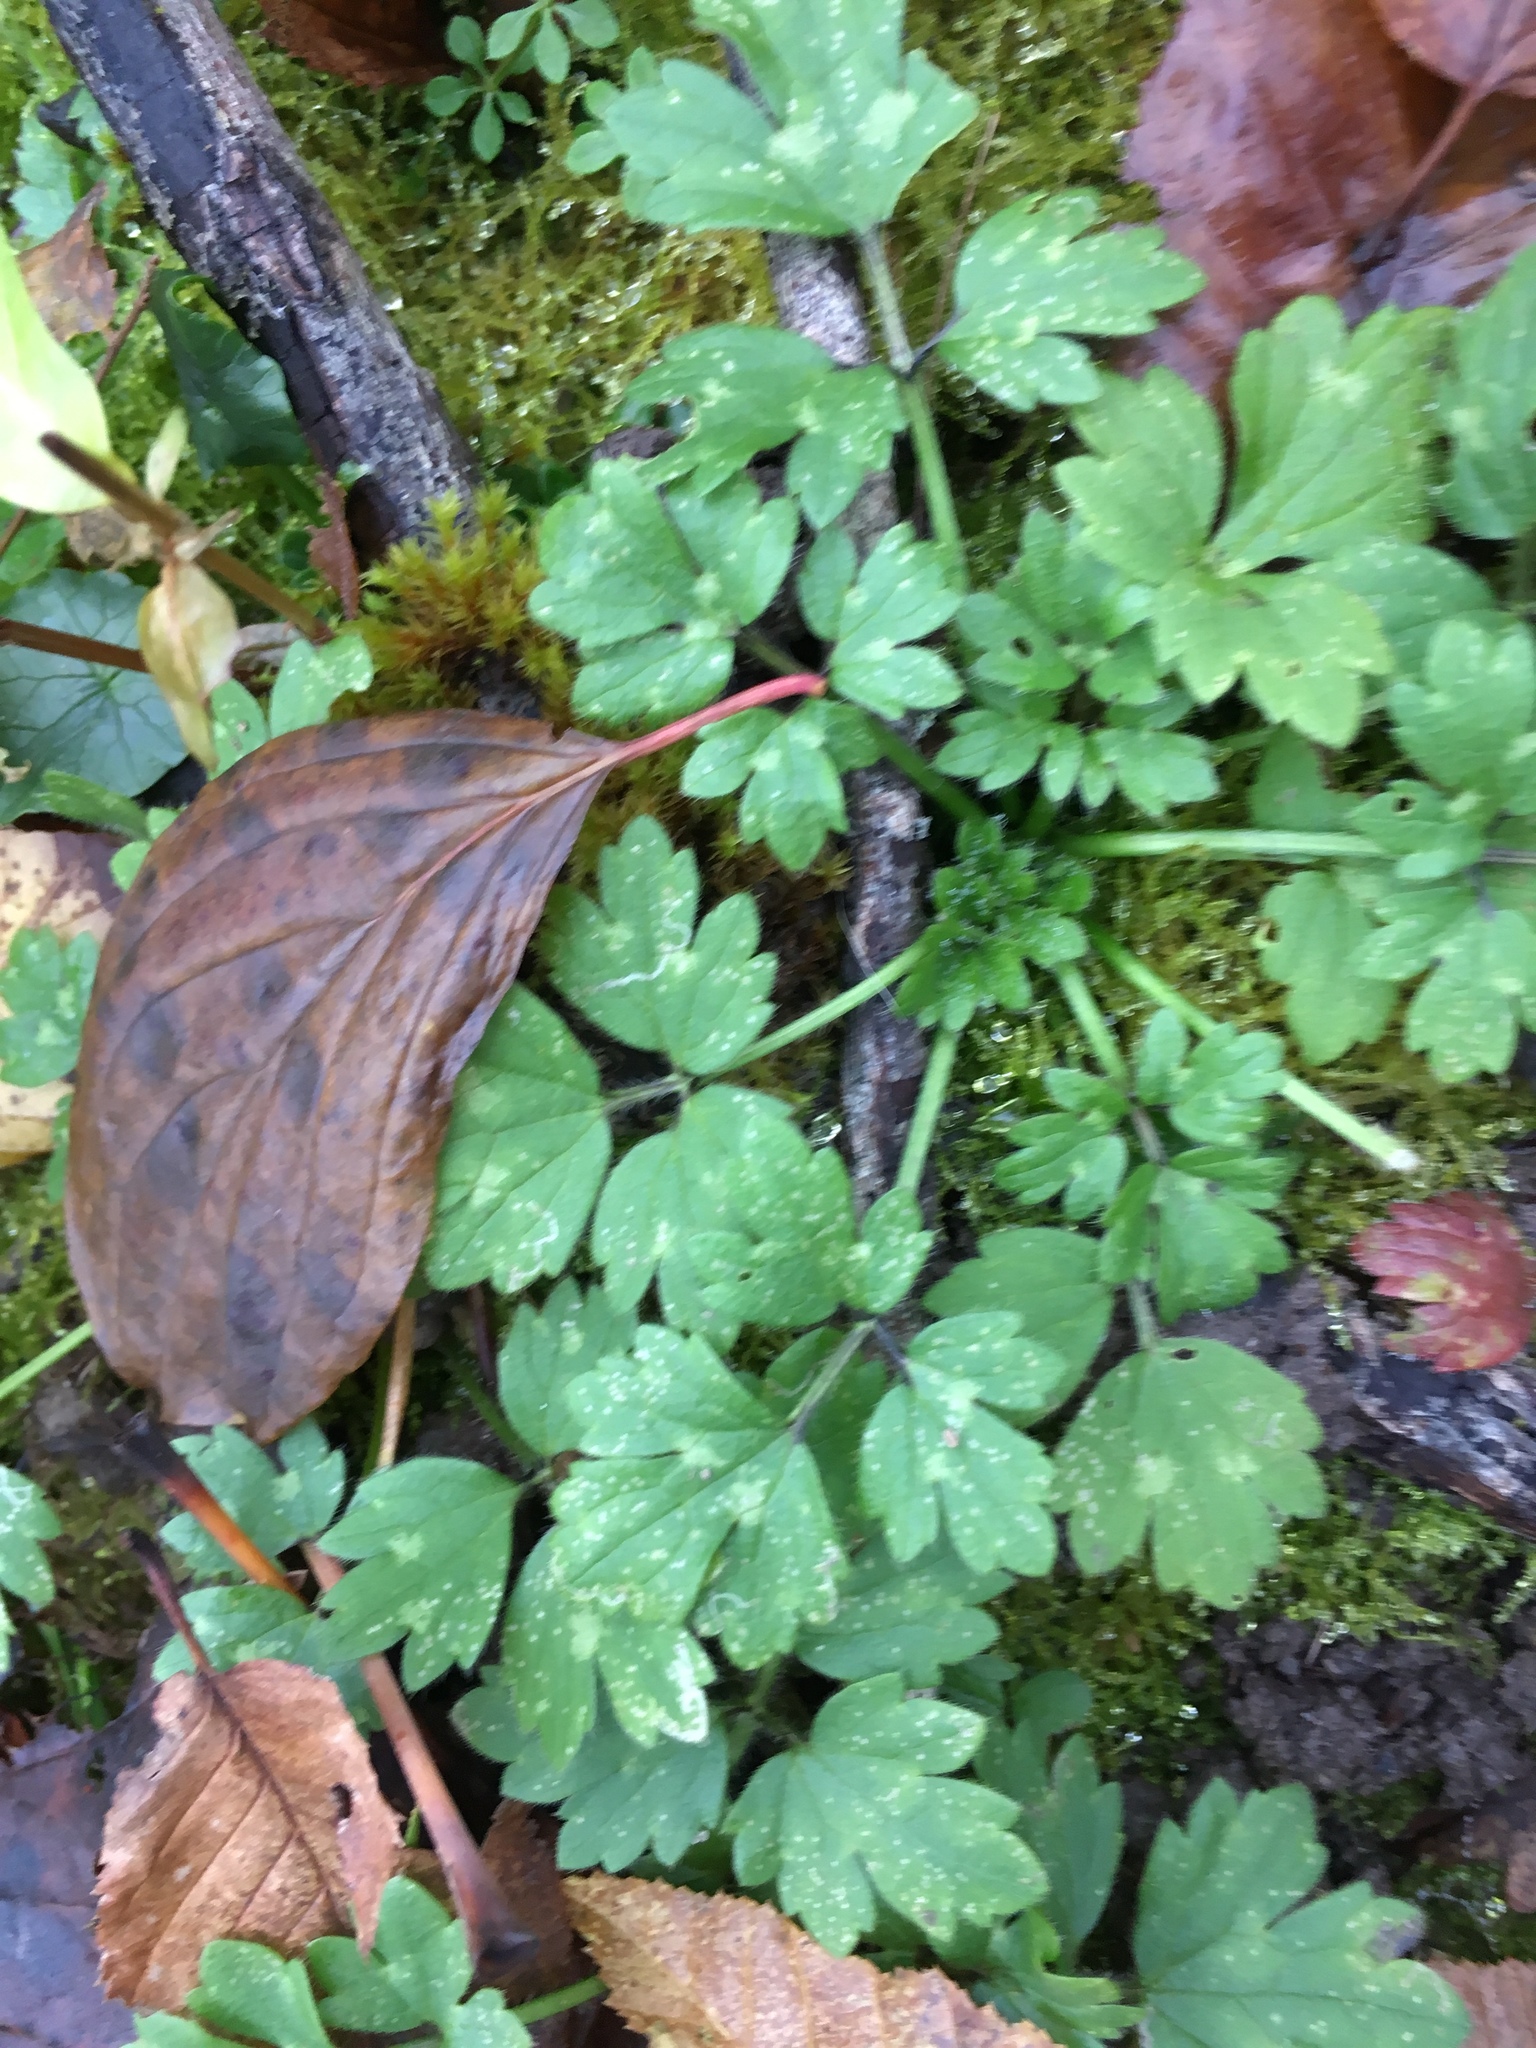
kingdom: Plantae
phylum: Tracheophyta
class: Magnoliopsida
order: Ranunculales
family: Ranunculaceae
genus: Ranunculus
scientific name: Ranunculus repens
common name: Creeping buttercup
